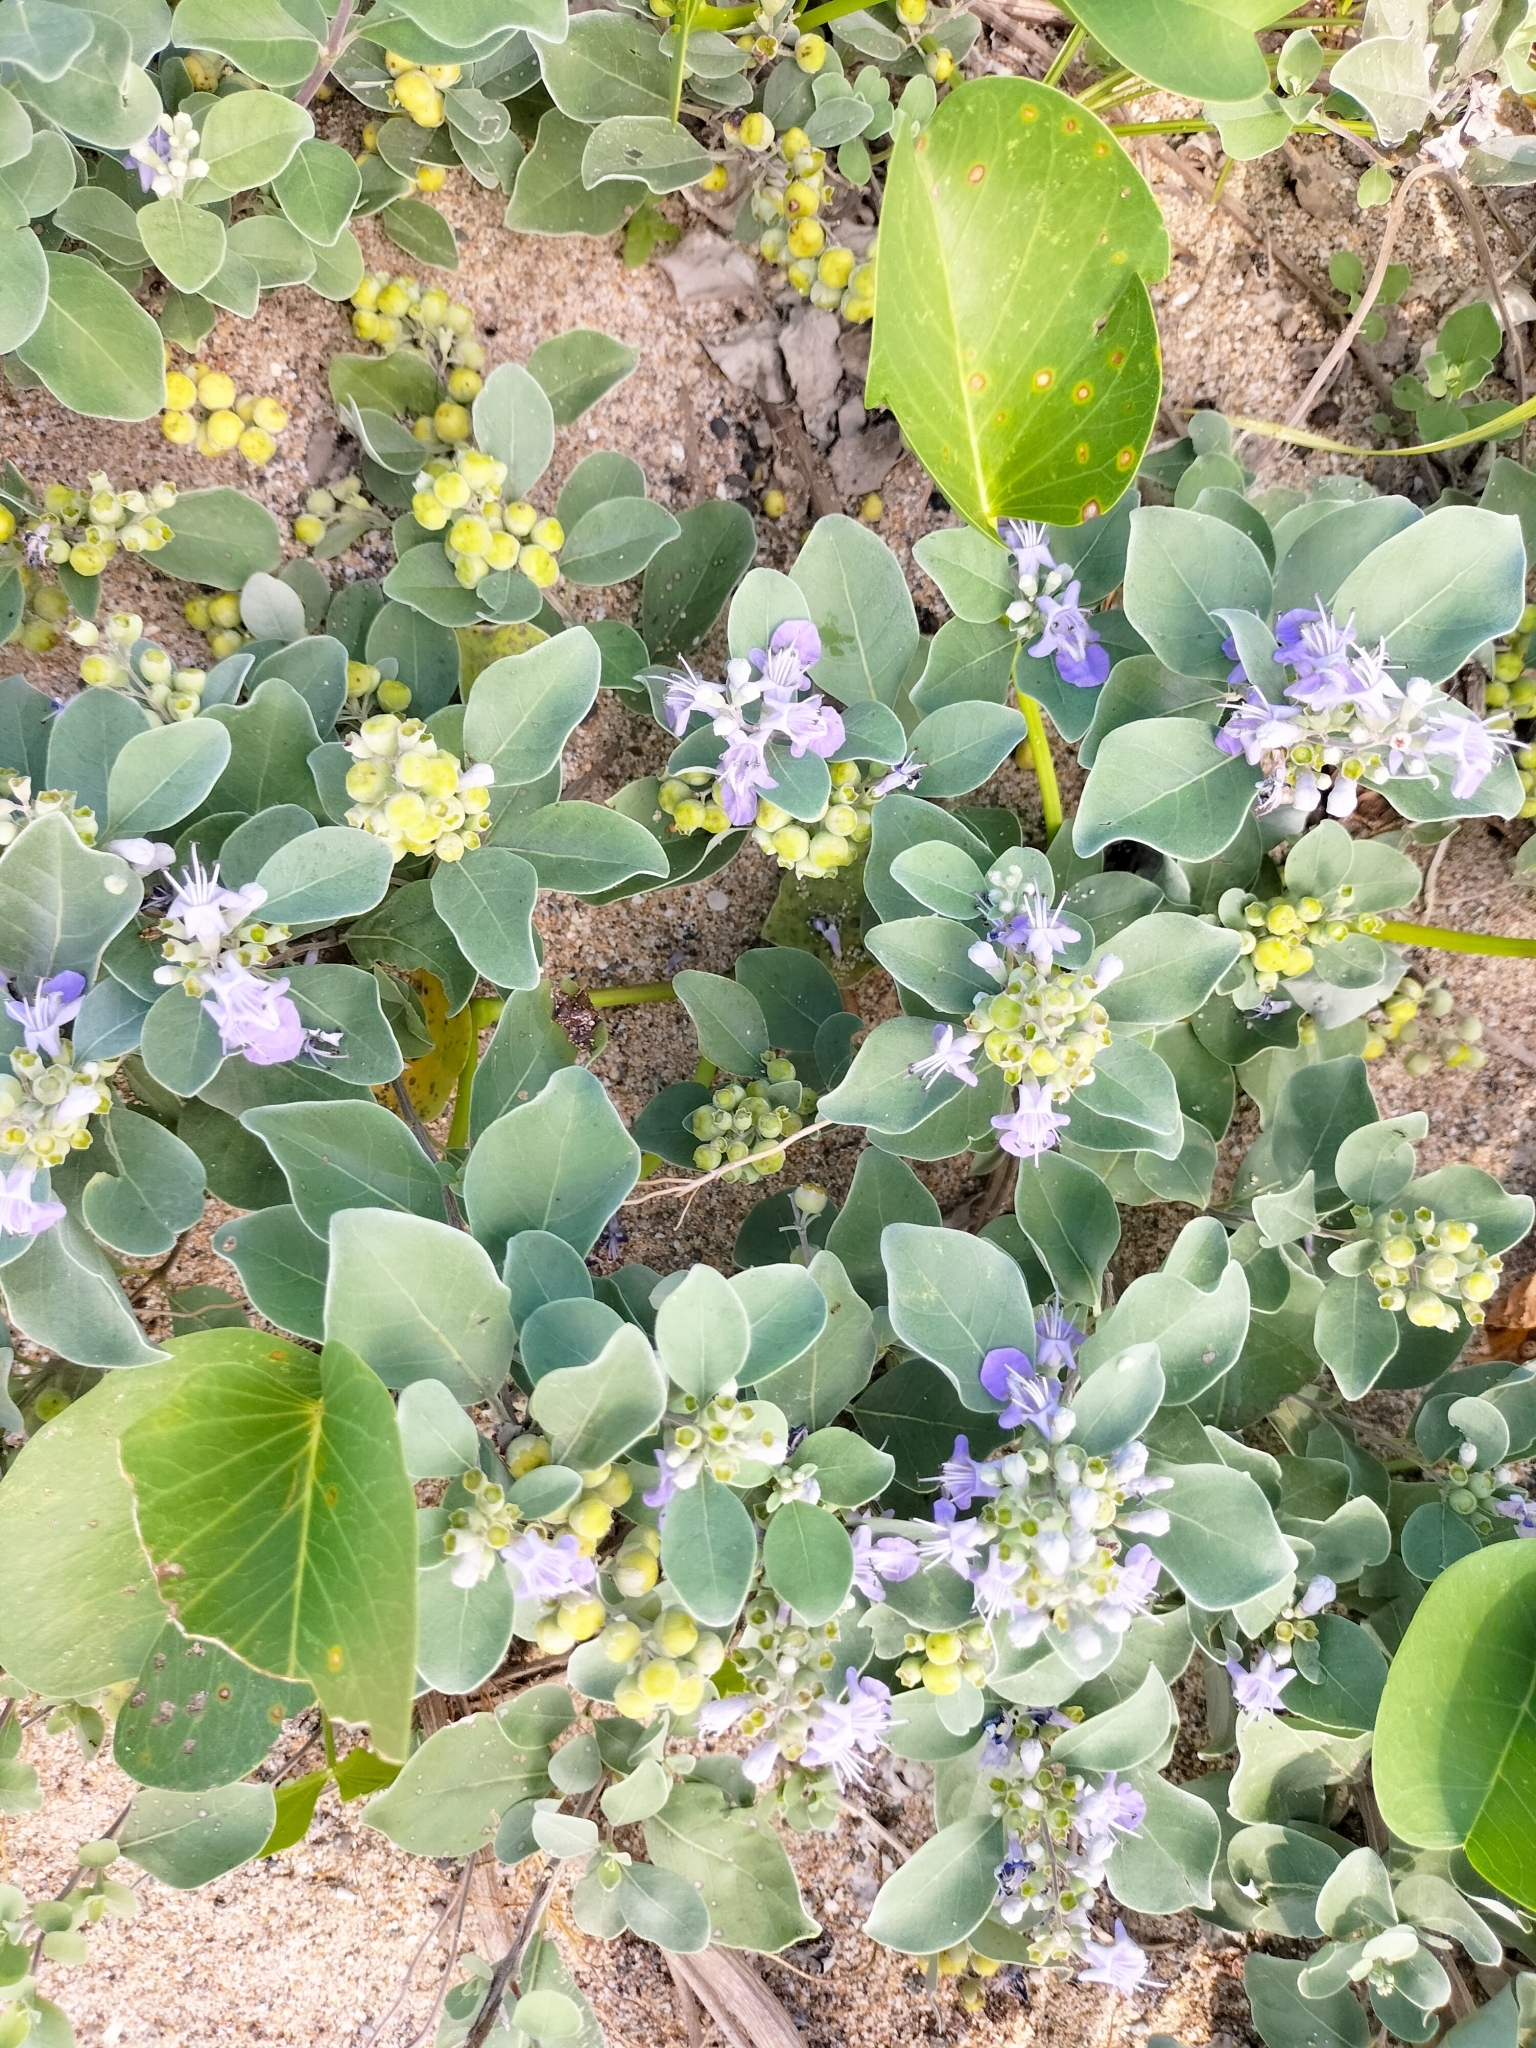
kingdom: Plantae
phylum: Tracheophyta
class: Magnoliopsida
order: Lamiales
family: Lamiaceae
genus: Vitex
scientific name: Vitex rotundifolia
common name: Beach vitex
